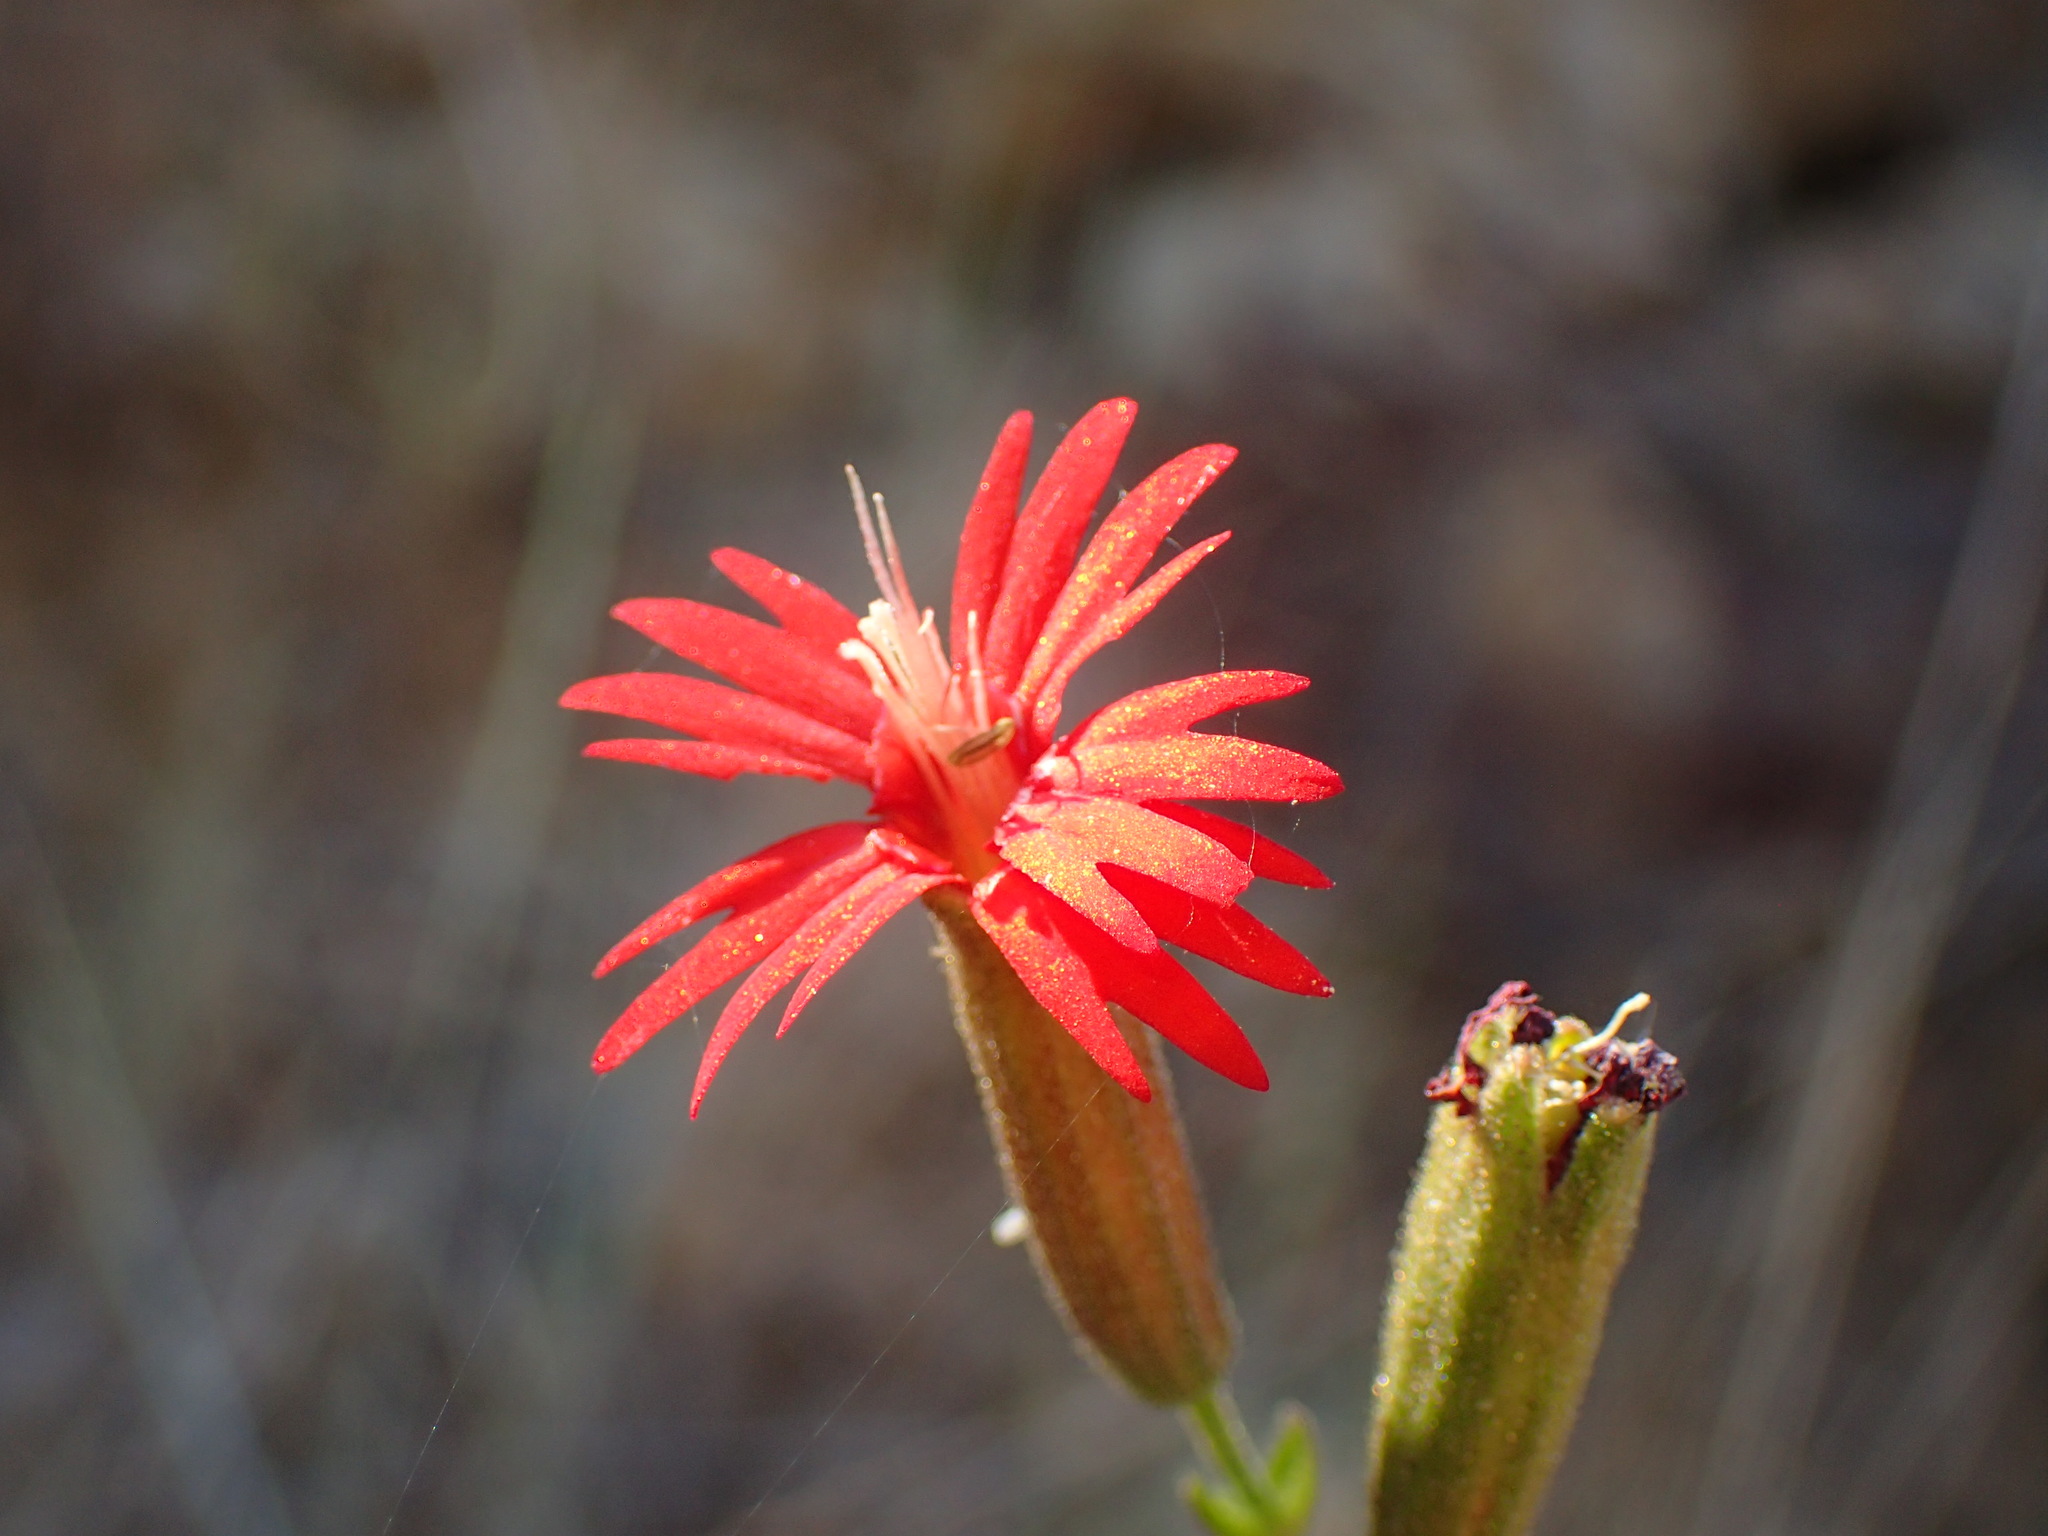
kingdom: Plantae
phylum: Tracheophyta
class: Magnoliopsida
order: Caryophyllales
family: Caryophyllaceae
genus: Silene
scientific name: Silene laciniata
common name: Indian-pink
